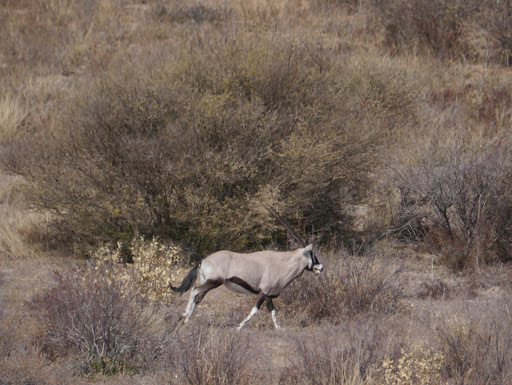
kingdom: Animalia
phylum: Chordata
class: Mammalia
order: Artiodactyla
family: Bovidae
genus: Oryx
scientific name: Oryx gazella
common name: Gemsbok
